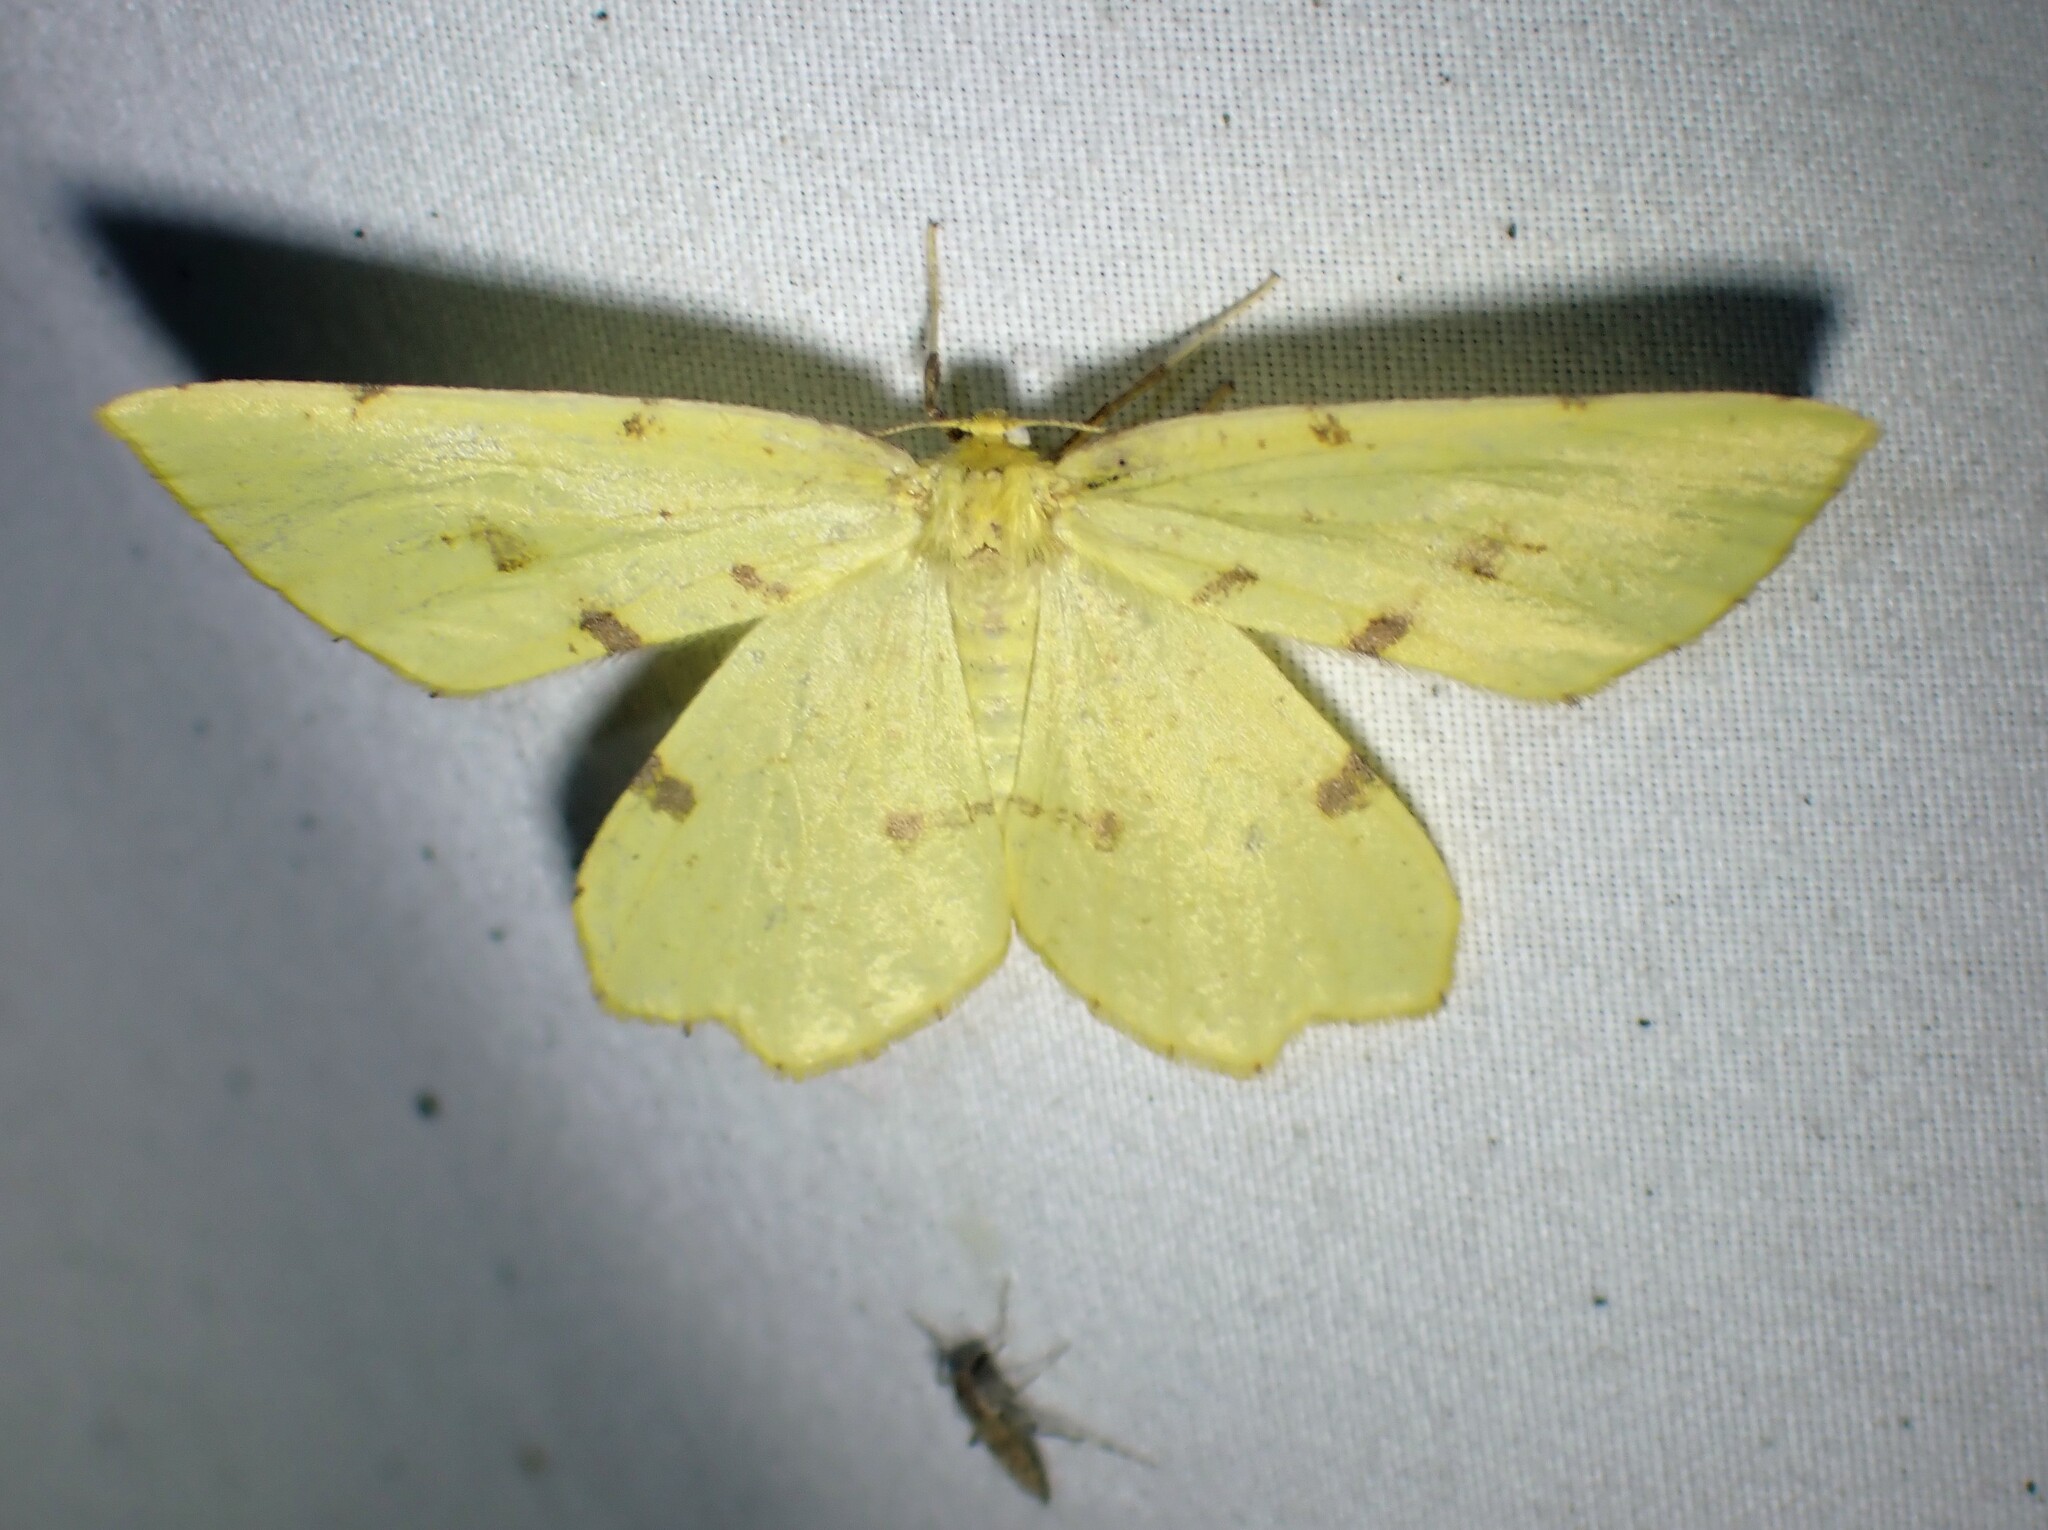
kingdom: Animalia
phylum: Arthropoda
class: Insecta
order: Lepidoptera
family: Geometridae
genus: Xanthotype
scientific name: Xanthotype
